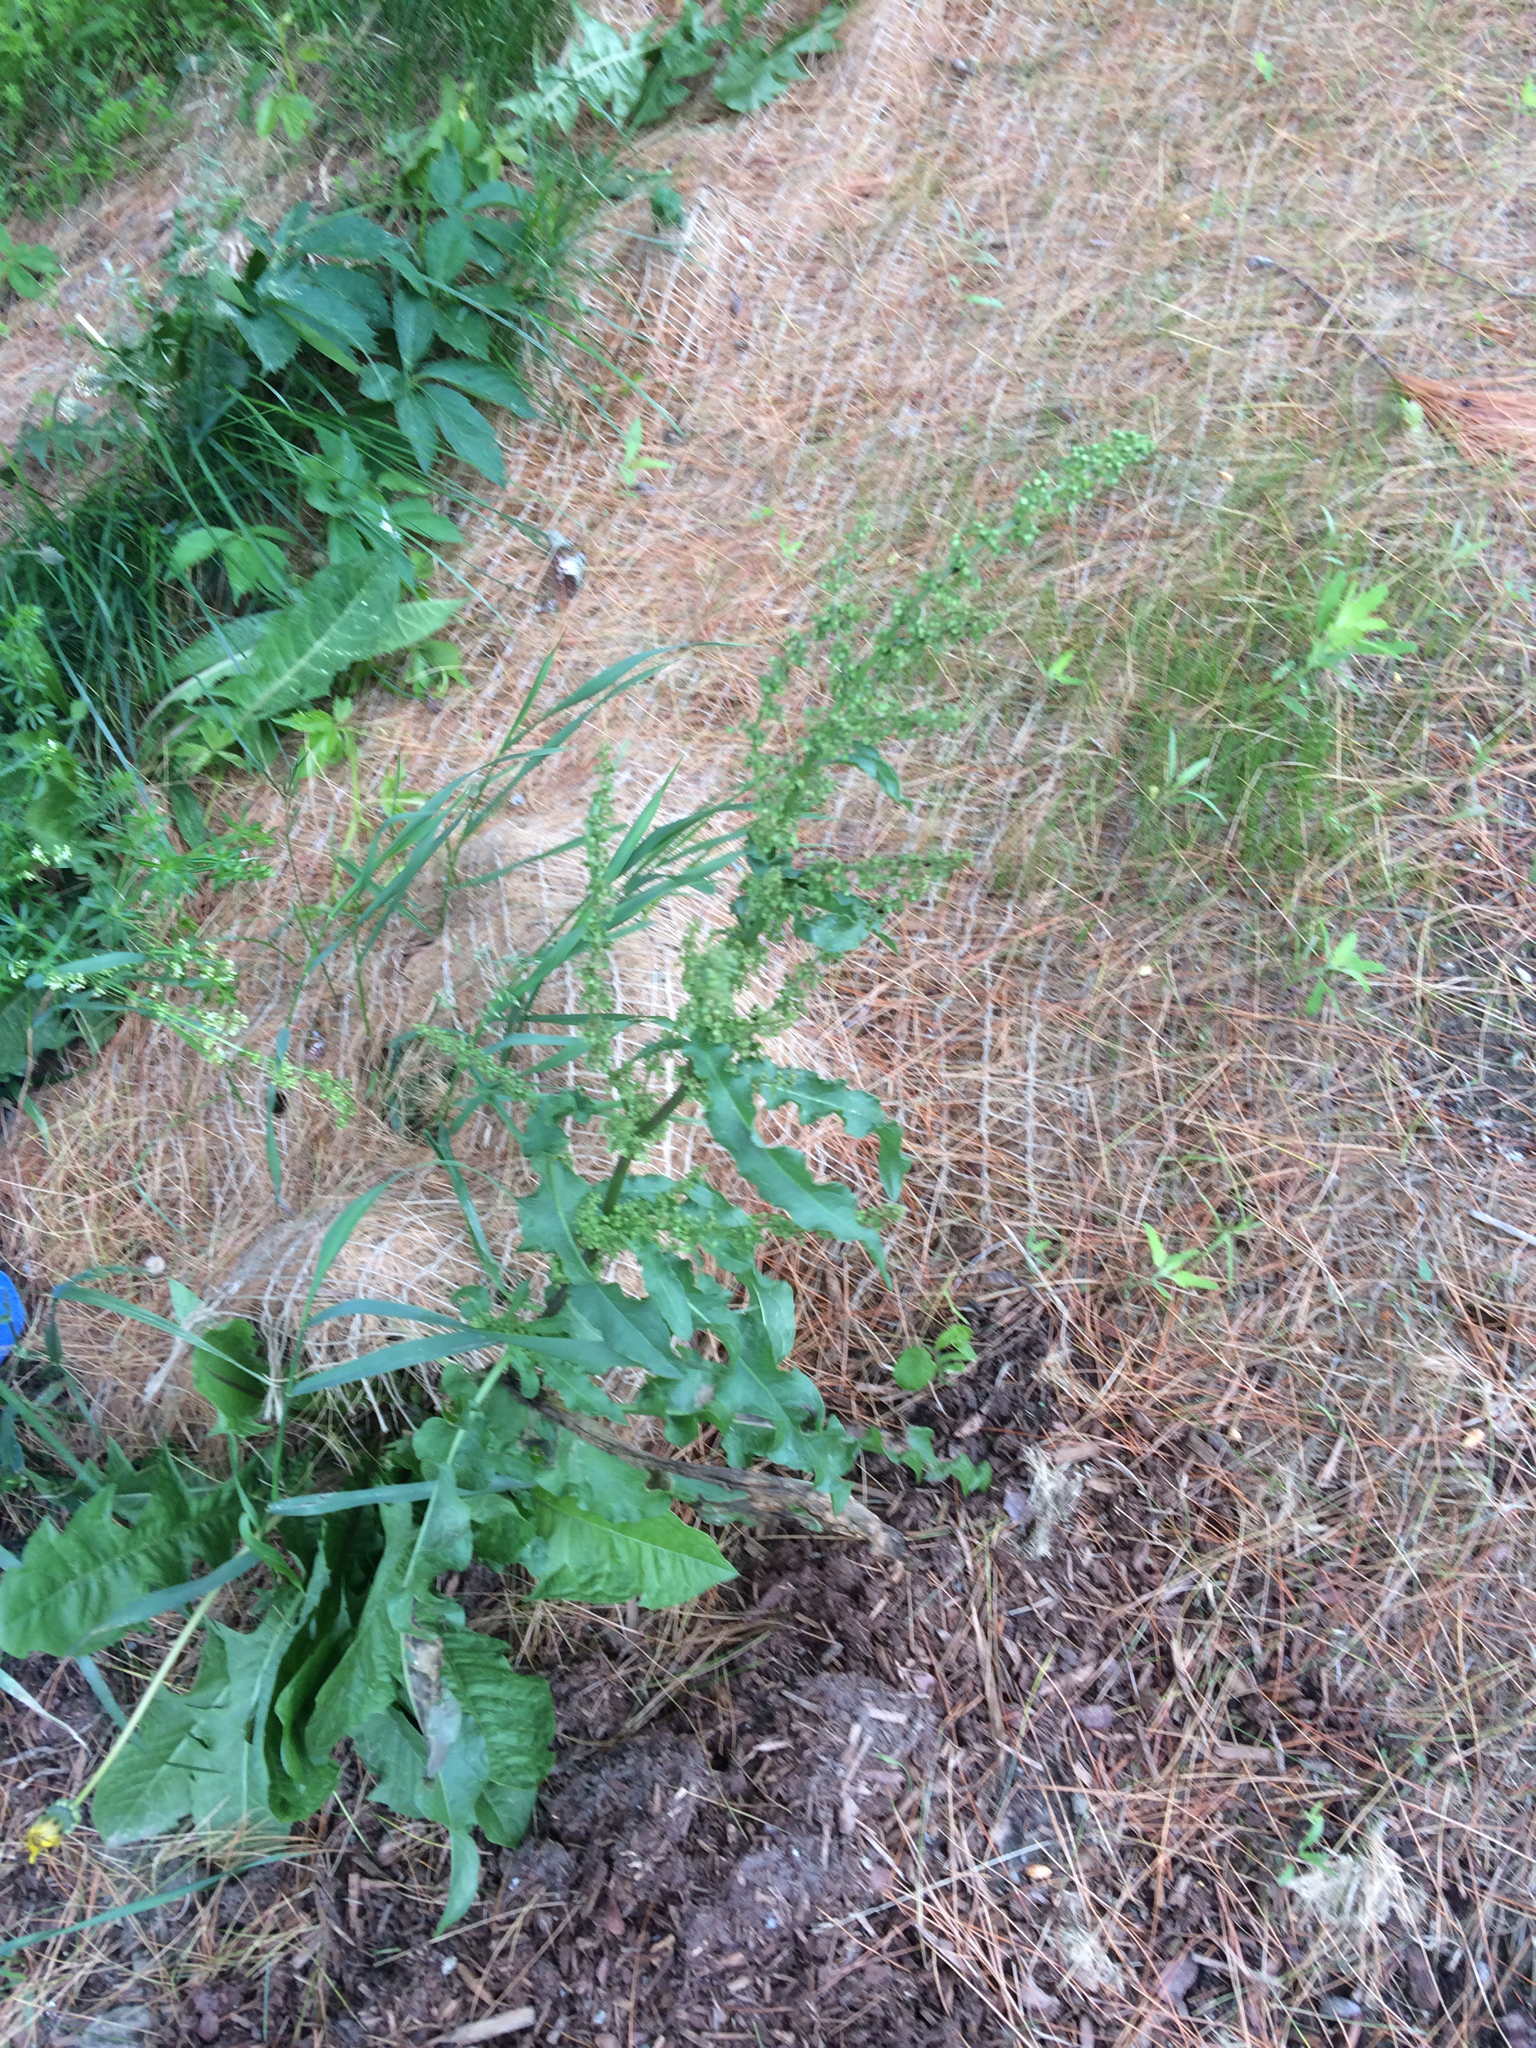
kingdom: Plantae
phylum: Tracheophyta
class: Magnoliopsida
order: Caryophyllales
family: Polygonaceae
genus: Rumex
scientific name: Rumex crispus
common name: Curled dock
